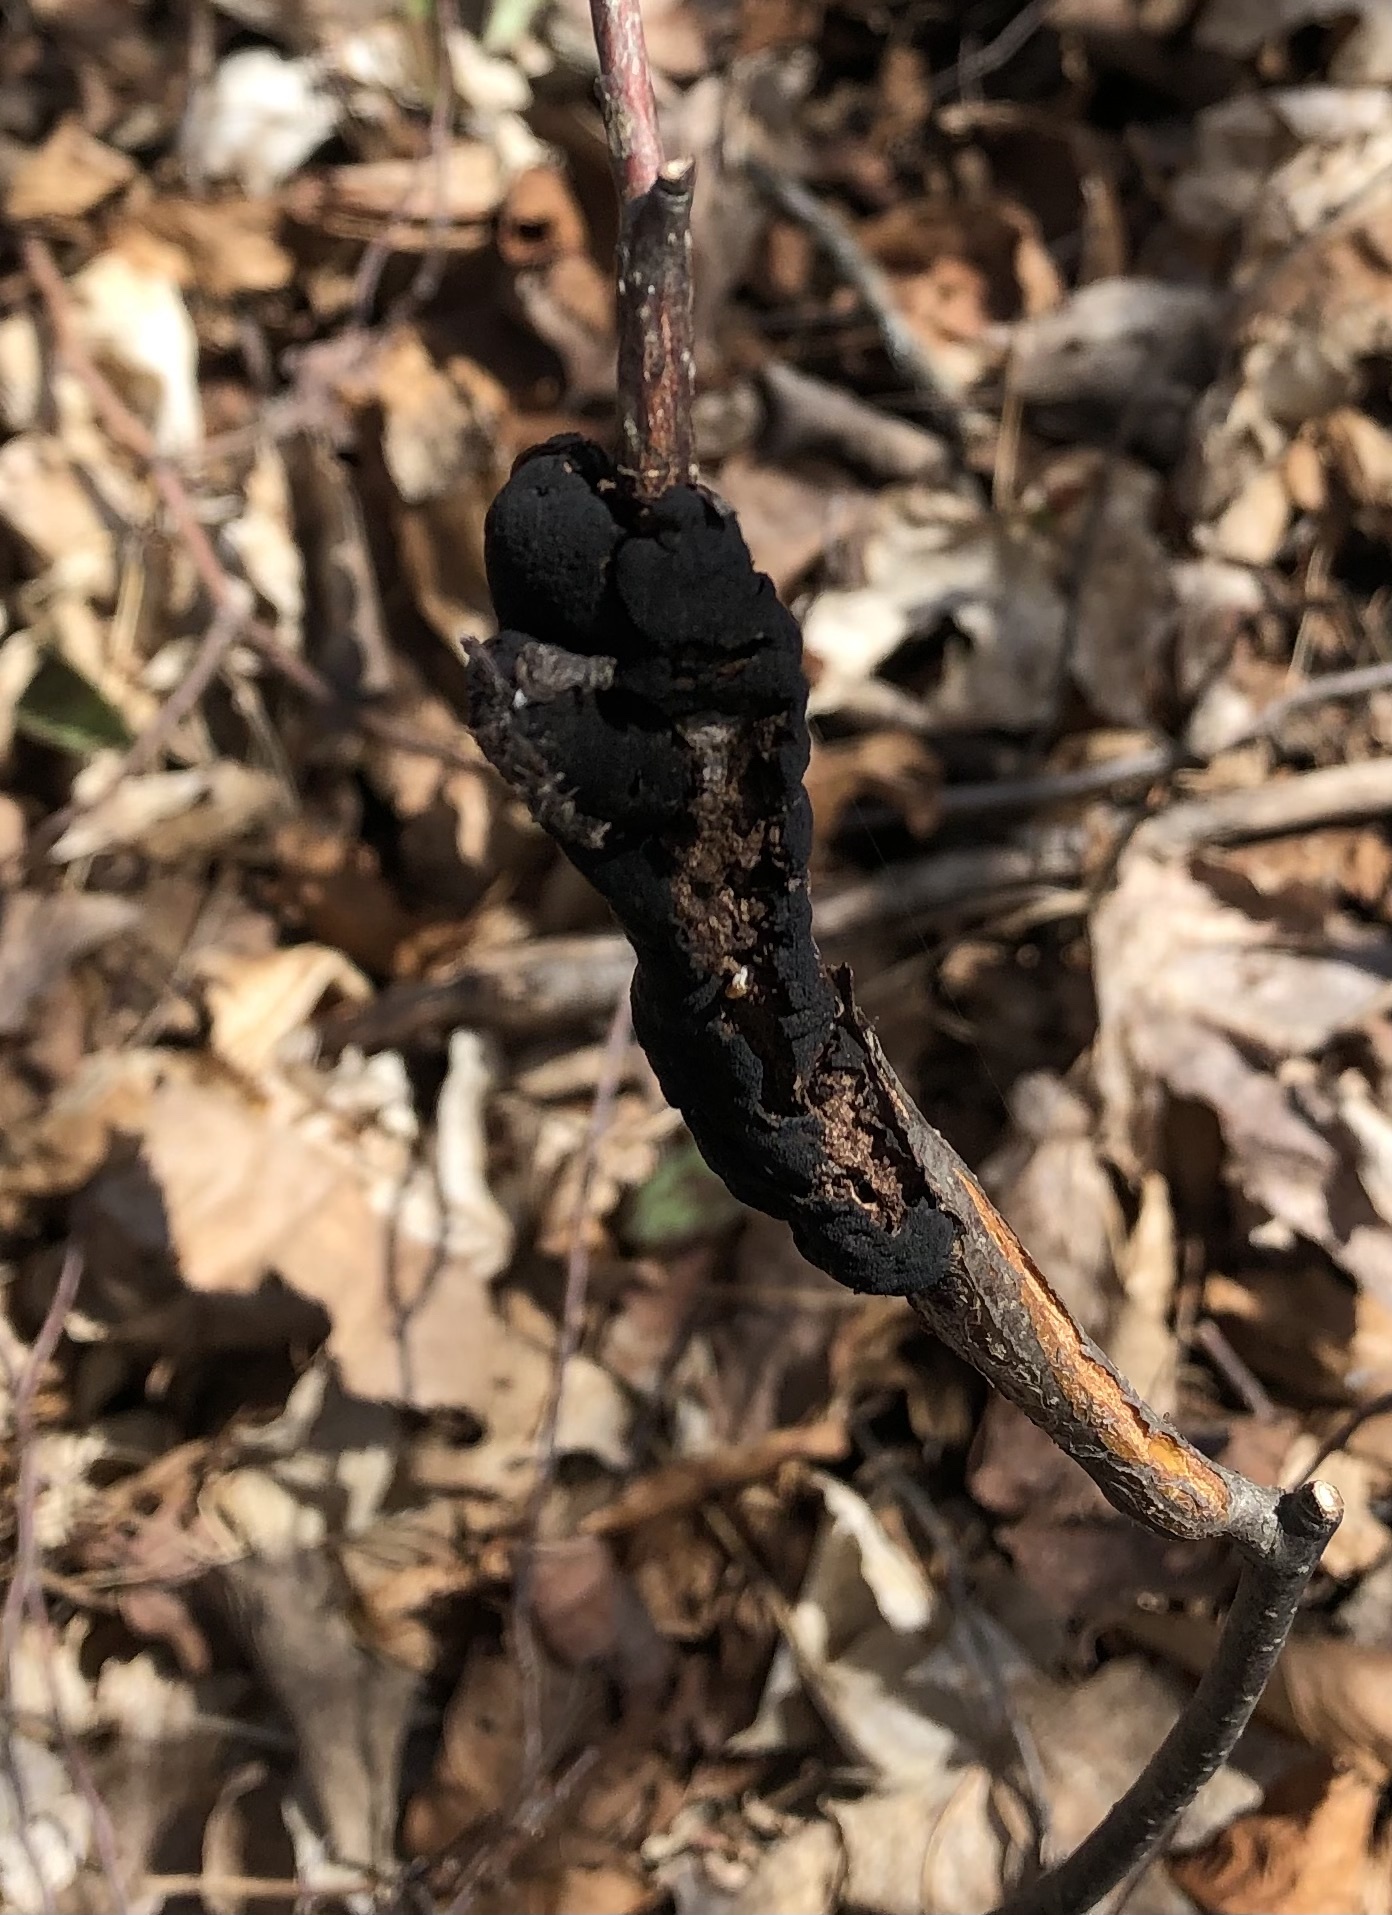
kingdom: Fungi
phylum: Ascomycota
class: Dothideomycetes
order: Venturiales
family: Venturiaceae
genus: Apiosporina
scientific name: Apiosporina morbosa
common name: Black knot
